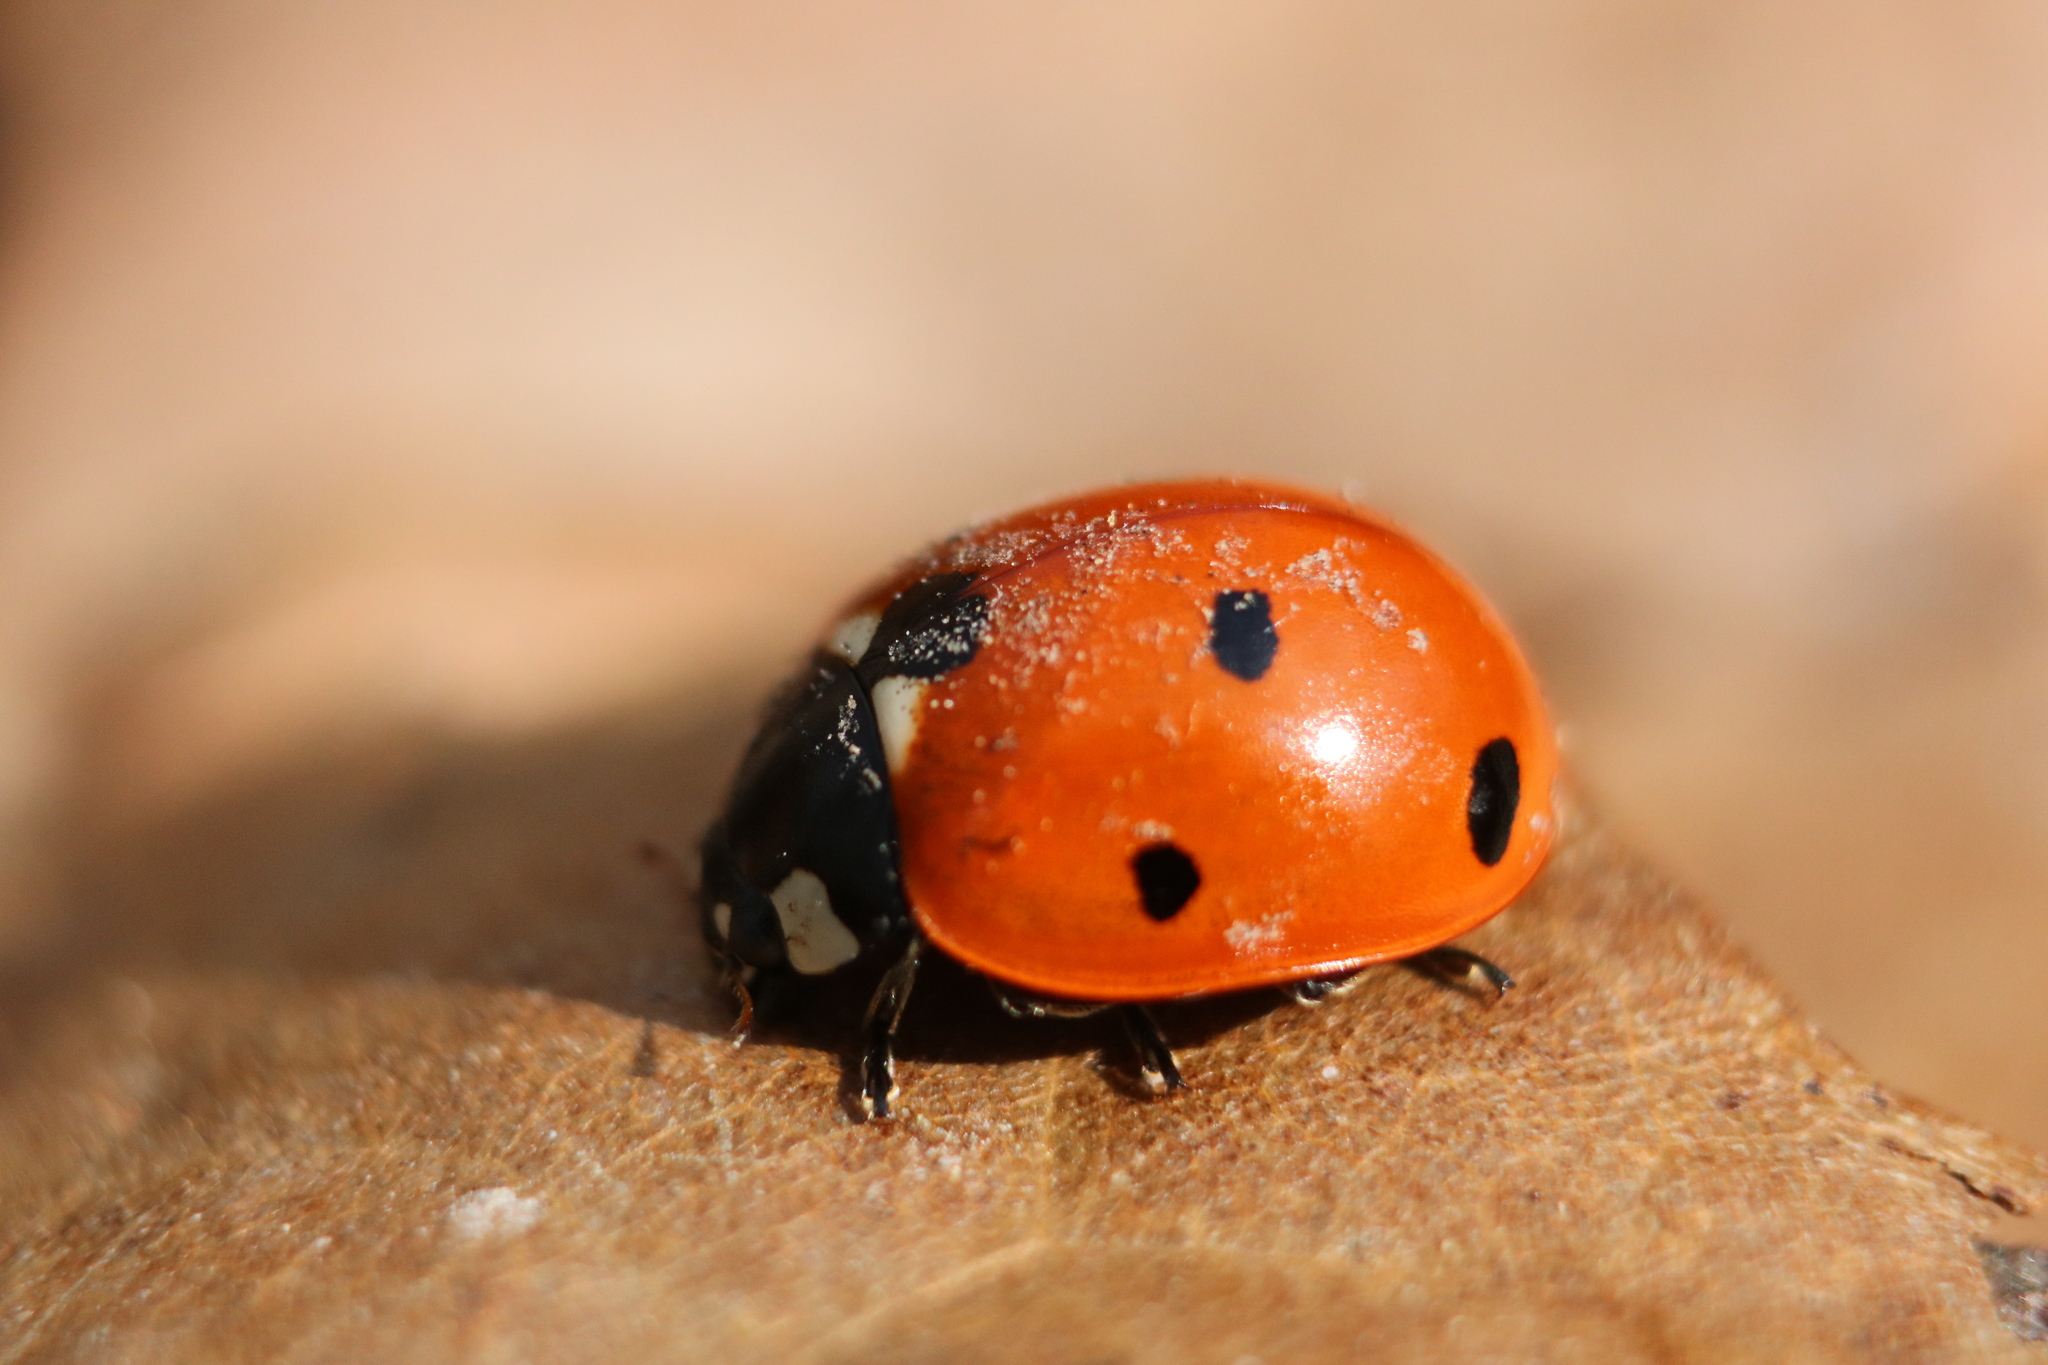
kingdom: Animalia
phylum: Arthropoda
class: Insecta
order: Coleoptera
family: Coccinellidae
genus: Coccinella
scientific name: Coccinella septempunctata
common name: Sevenspotted lady beetle
